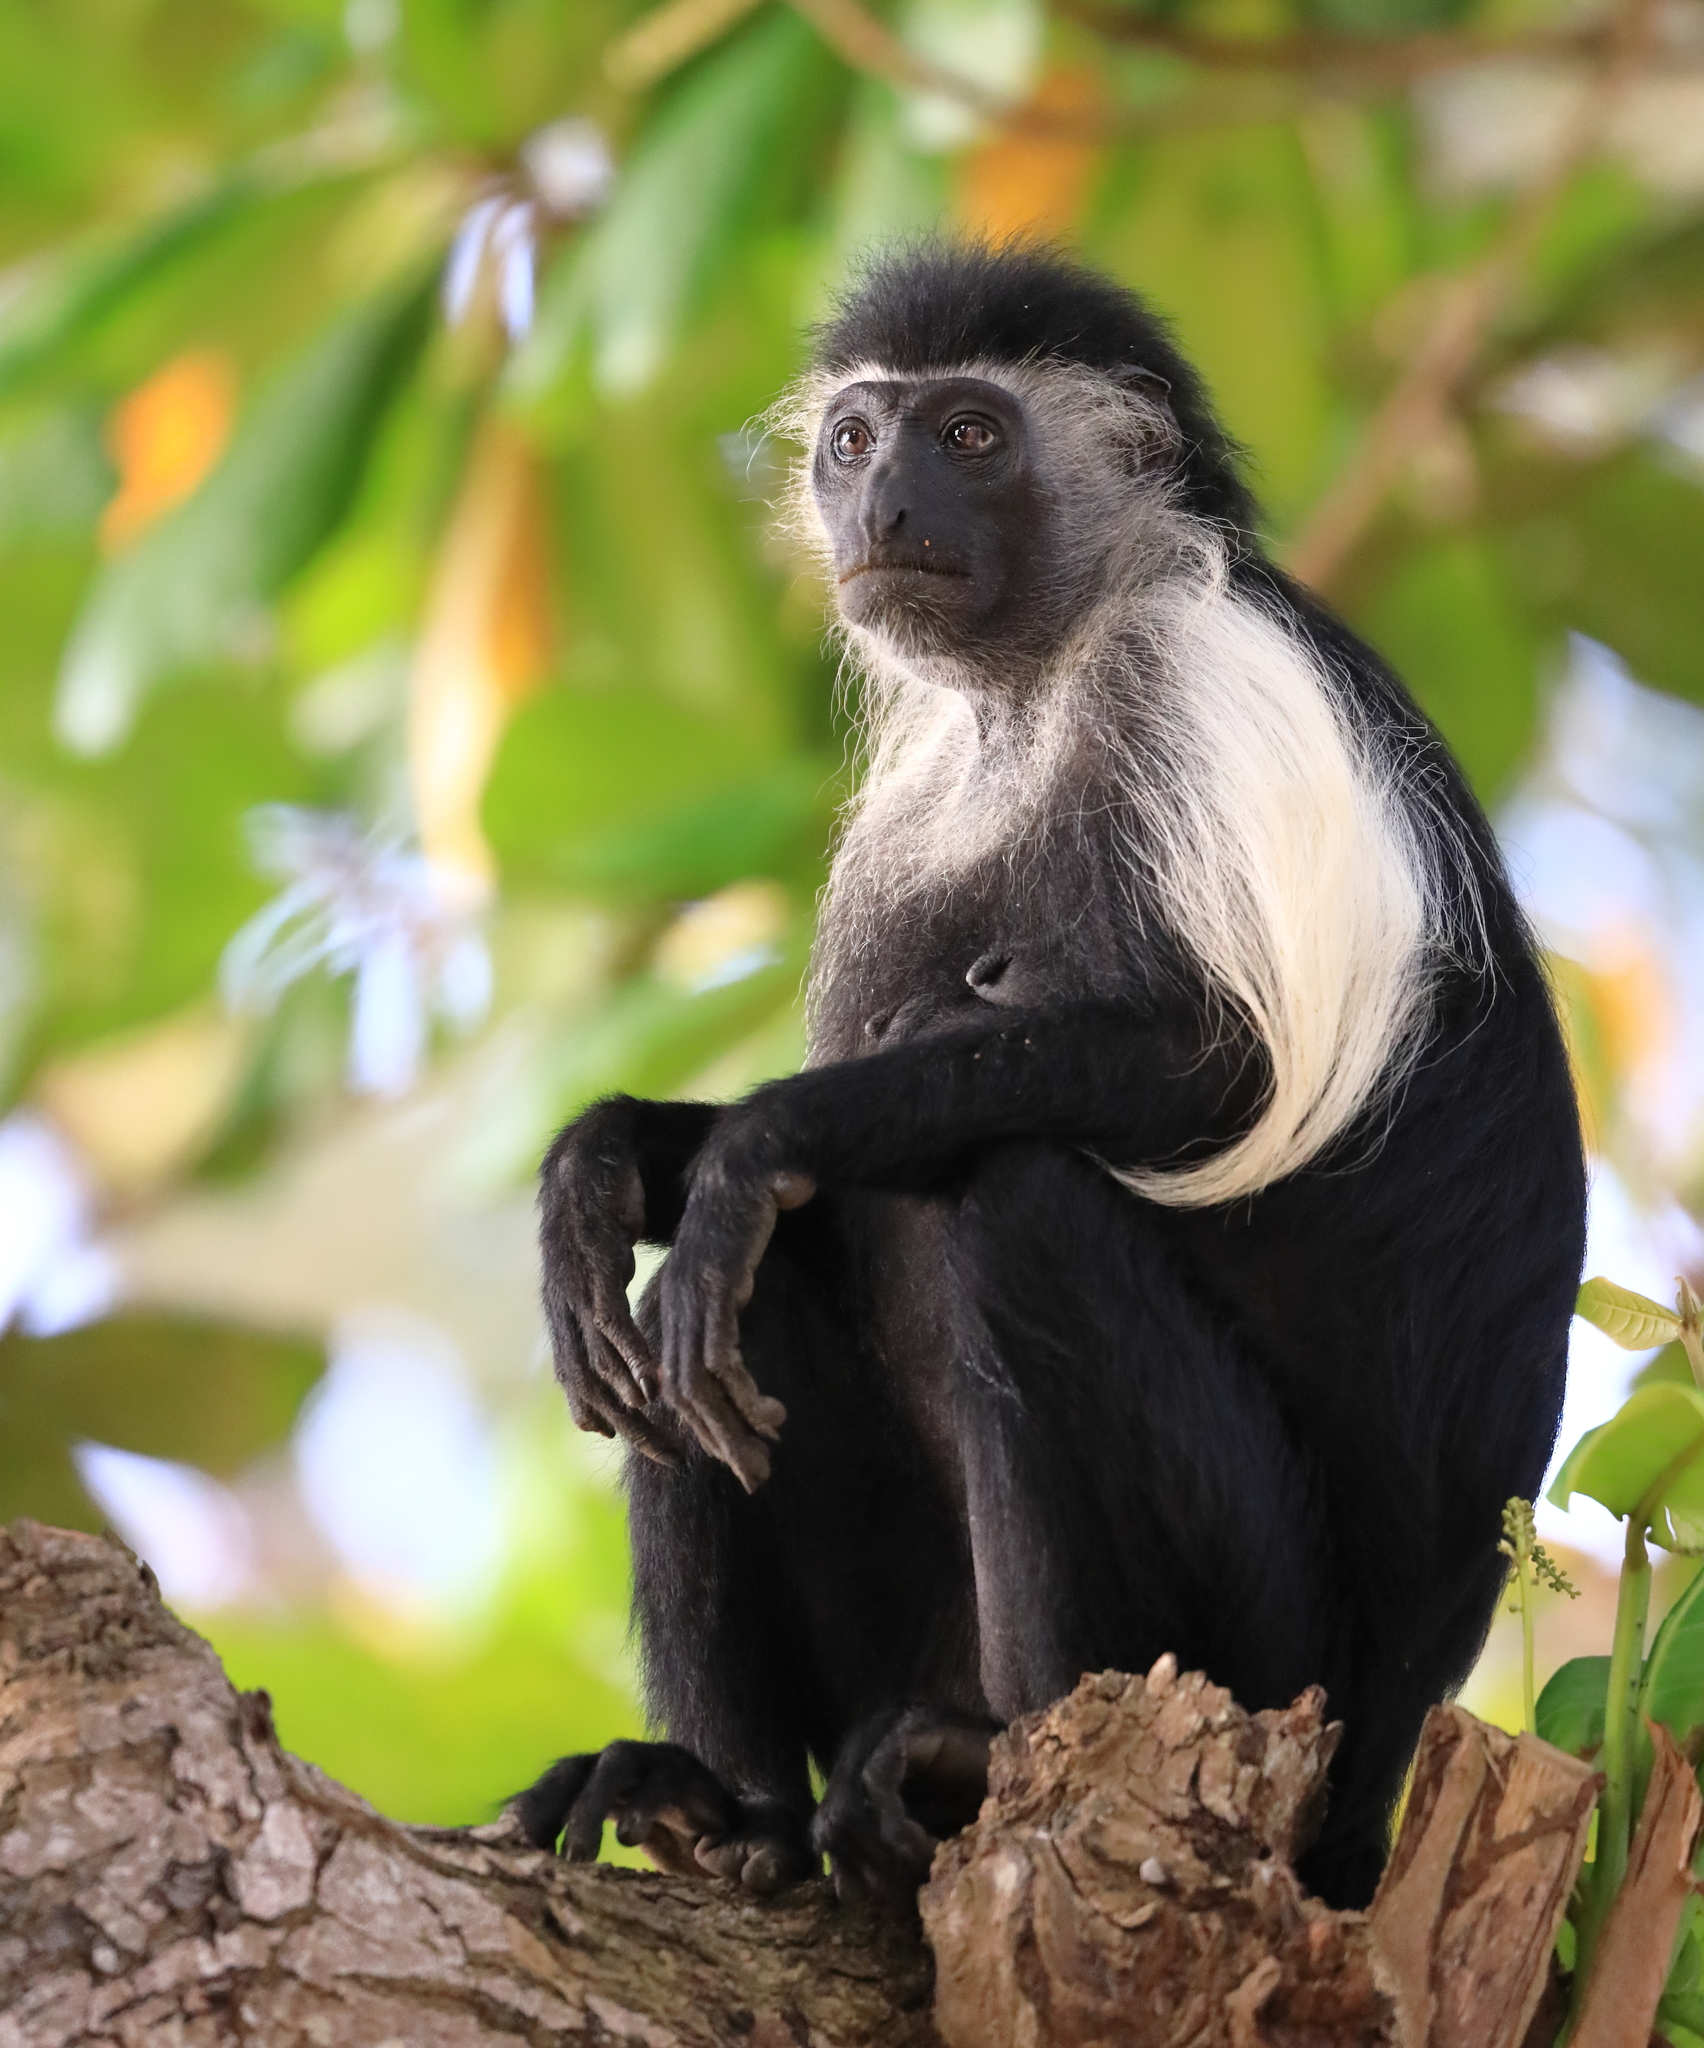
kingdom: Animalia
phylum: Chordata
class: Mammalia
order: Primates
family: Cercopithecidae
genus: Colobus
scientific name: Colobus angolensis
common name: Angola colobus
